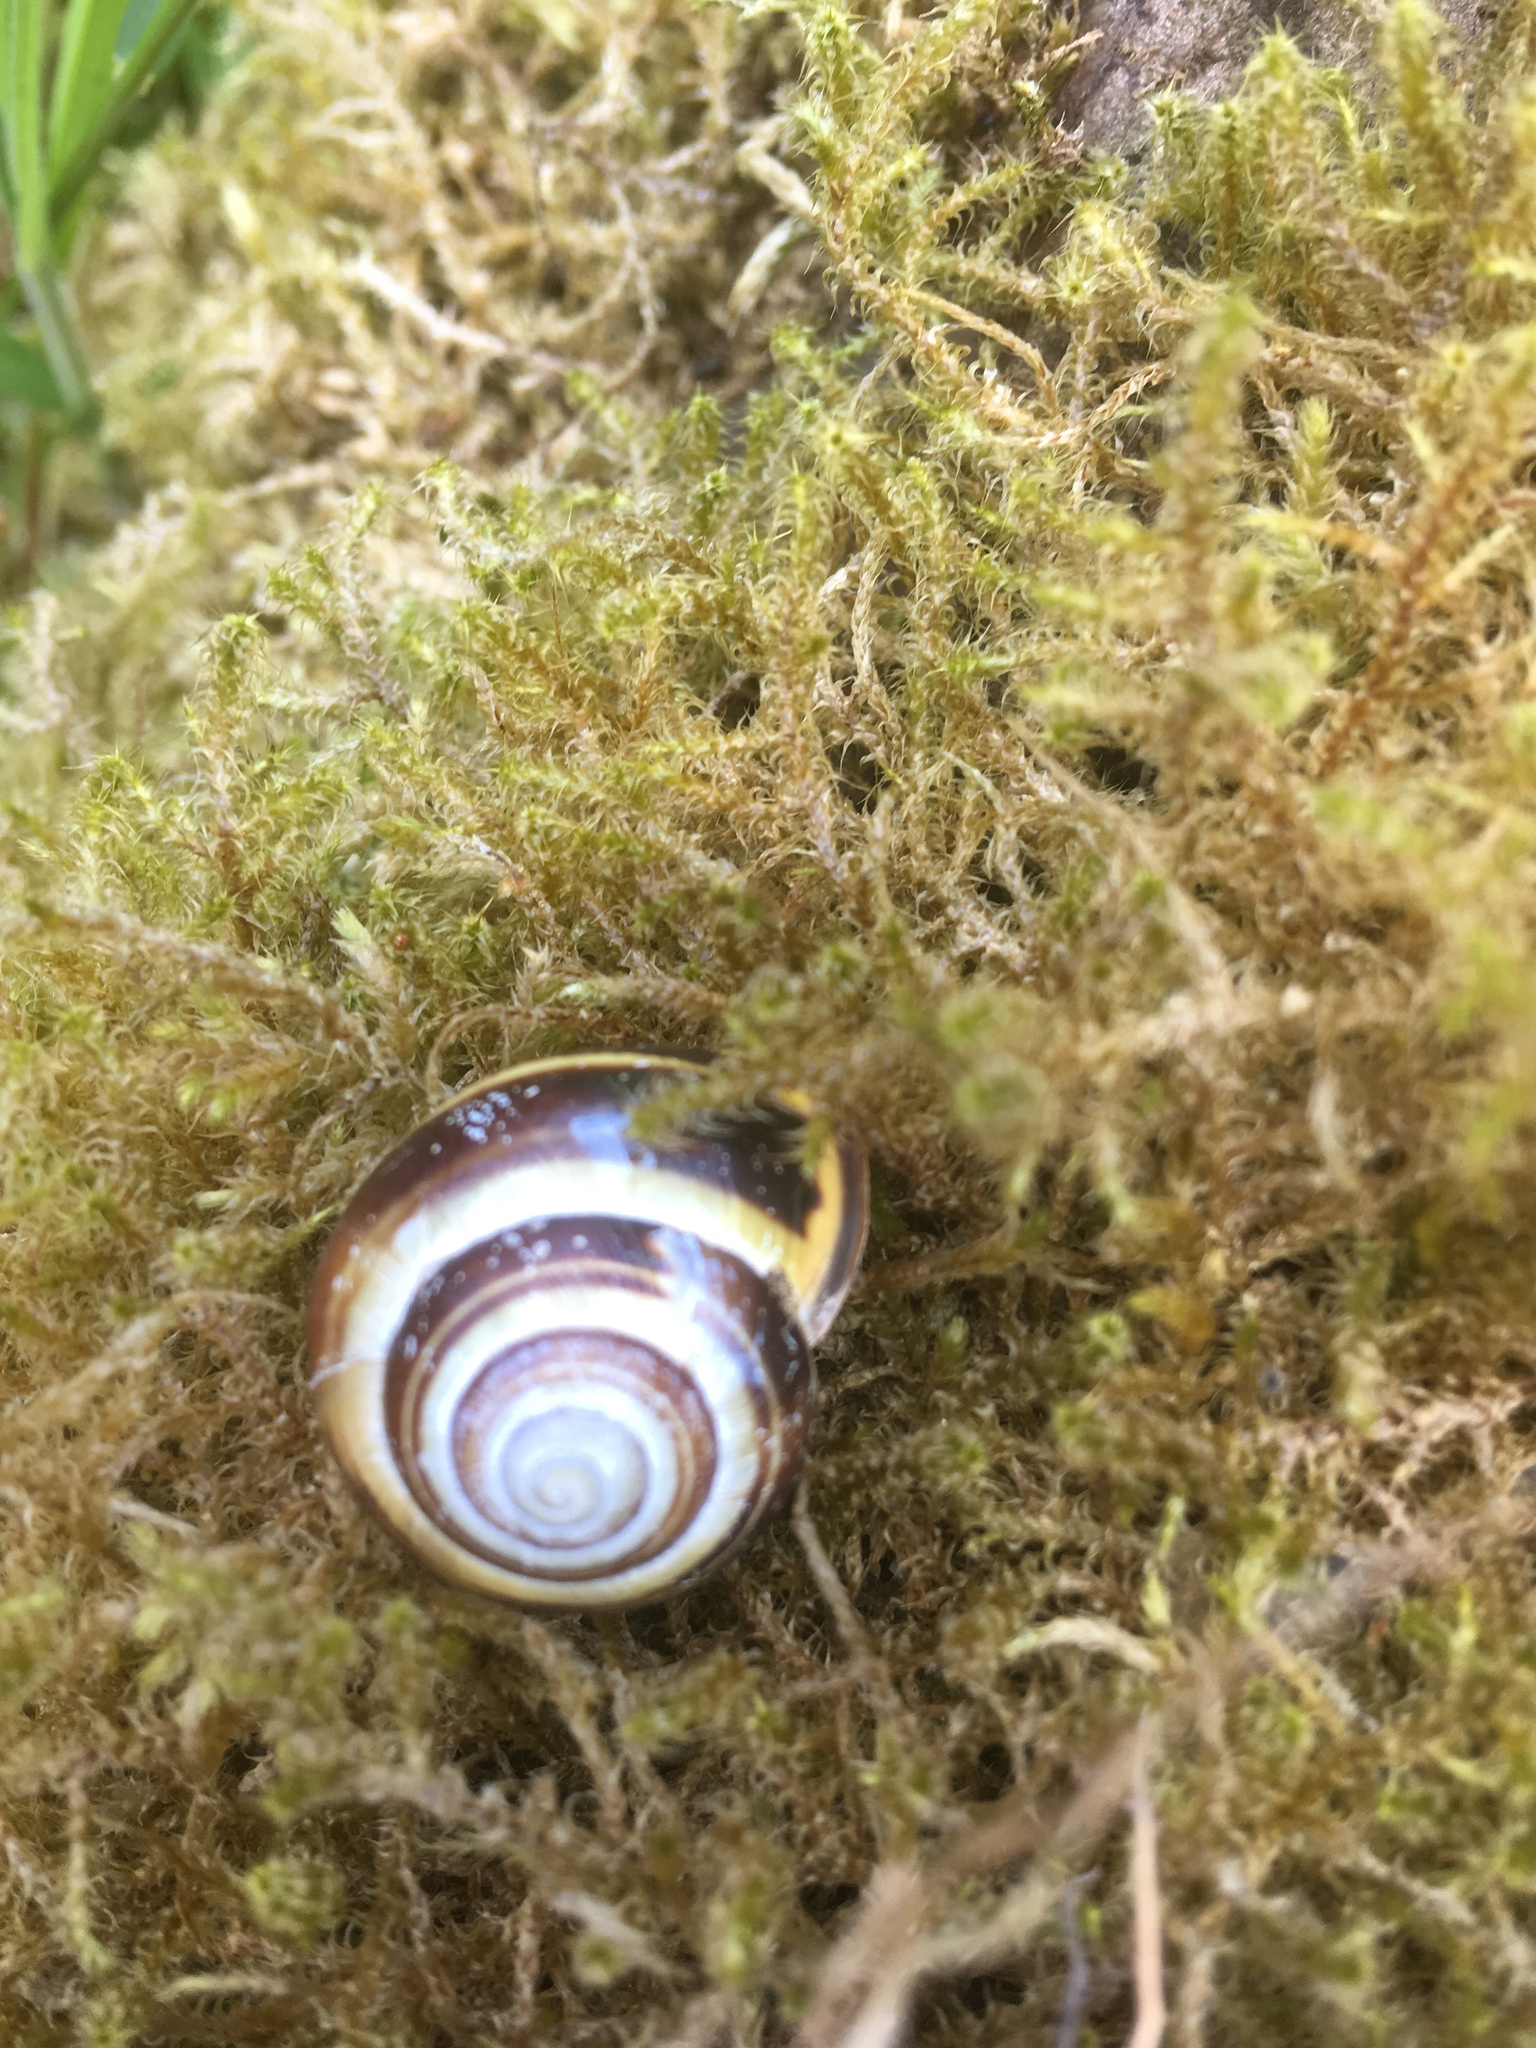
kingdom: Animalia
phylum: Mollusca
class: Gastropoda
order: Stylommatophora
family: Helicidae
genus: Cepaea
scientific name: Cepaea nemoralis
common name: Grovesnail
